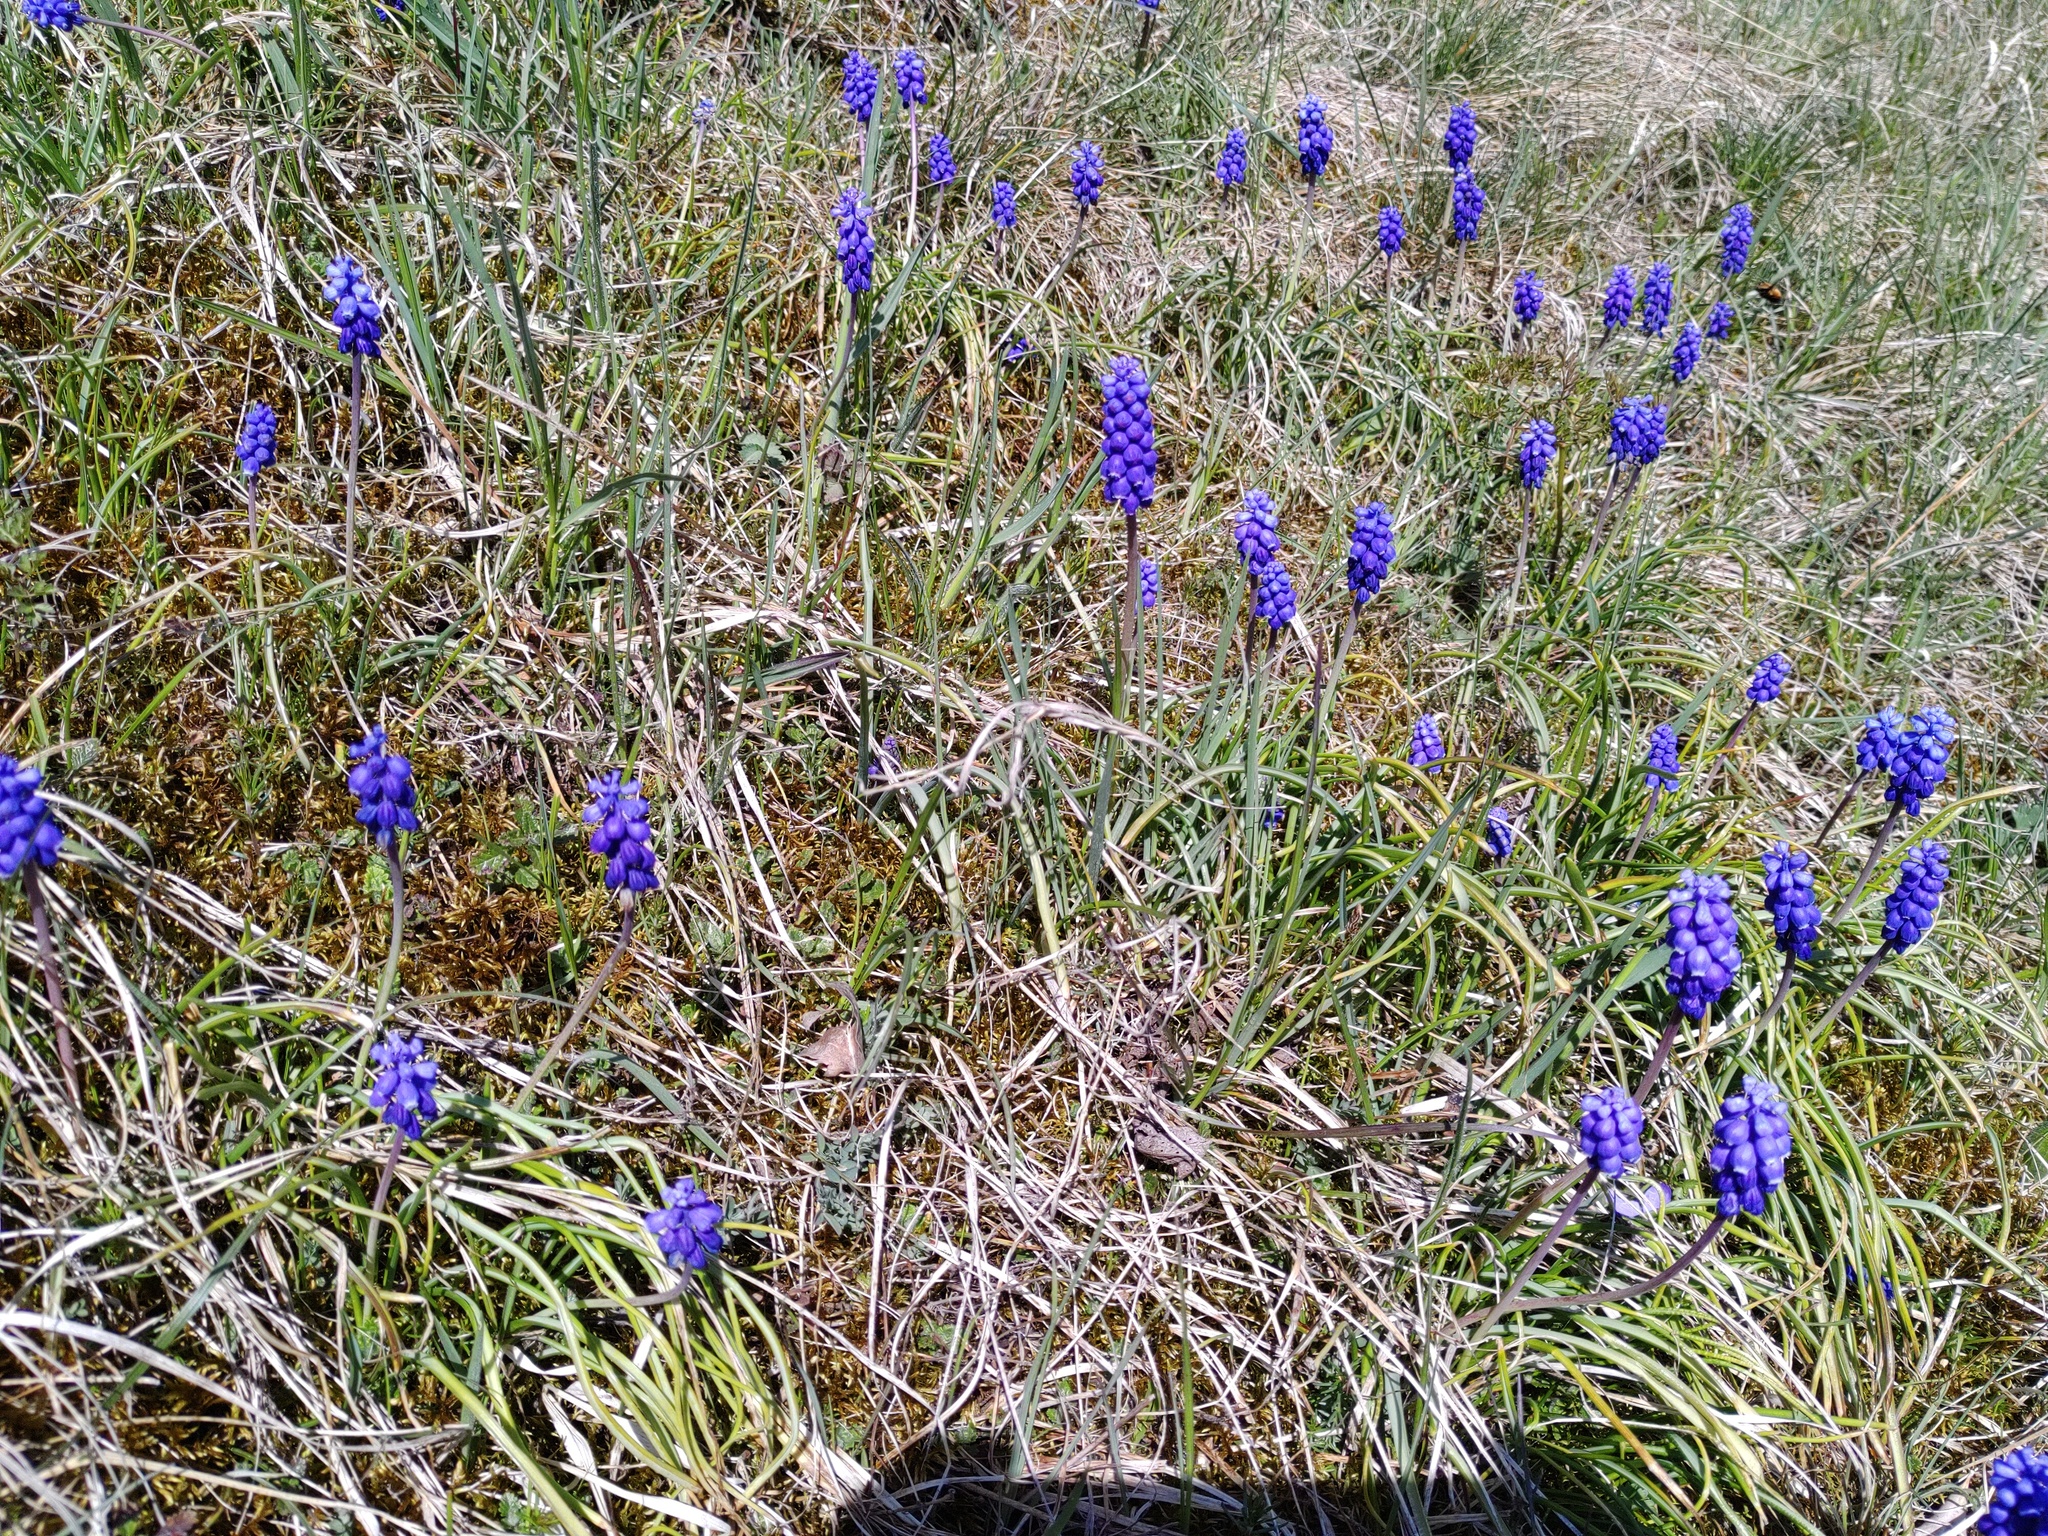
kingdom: Plantae
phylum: Tracheophyta
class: Liliopsida
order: Asparagales
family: Asparagaceae
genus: Muscari
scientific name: Muscari armeniacum
